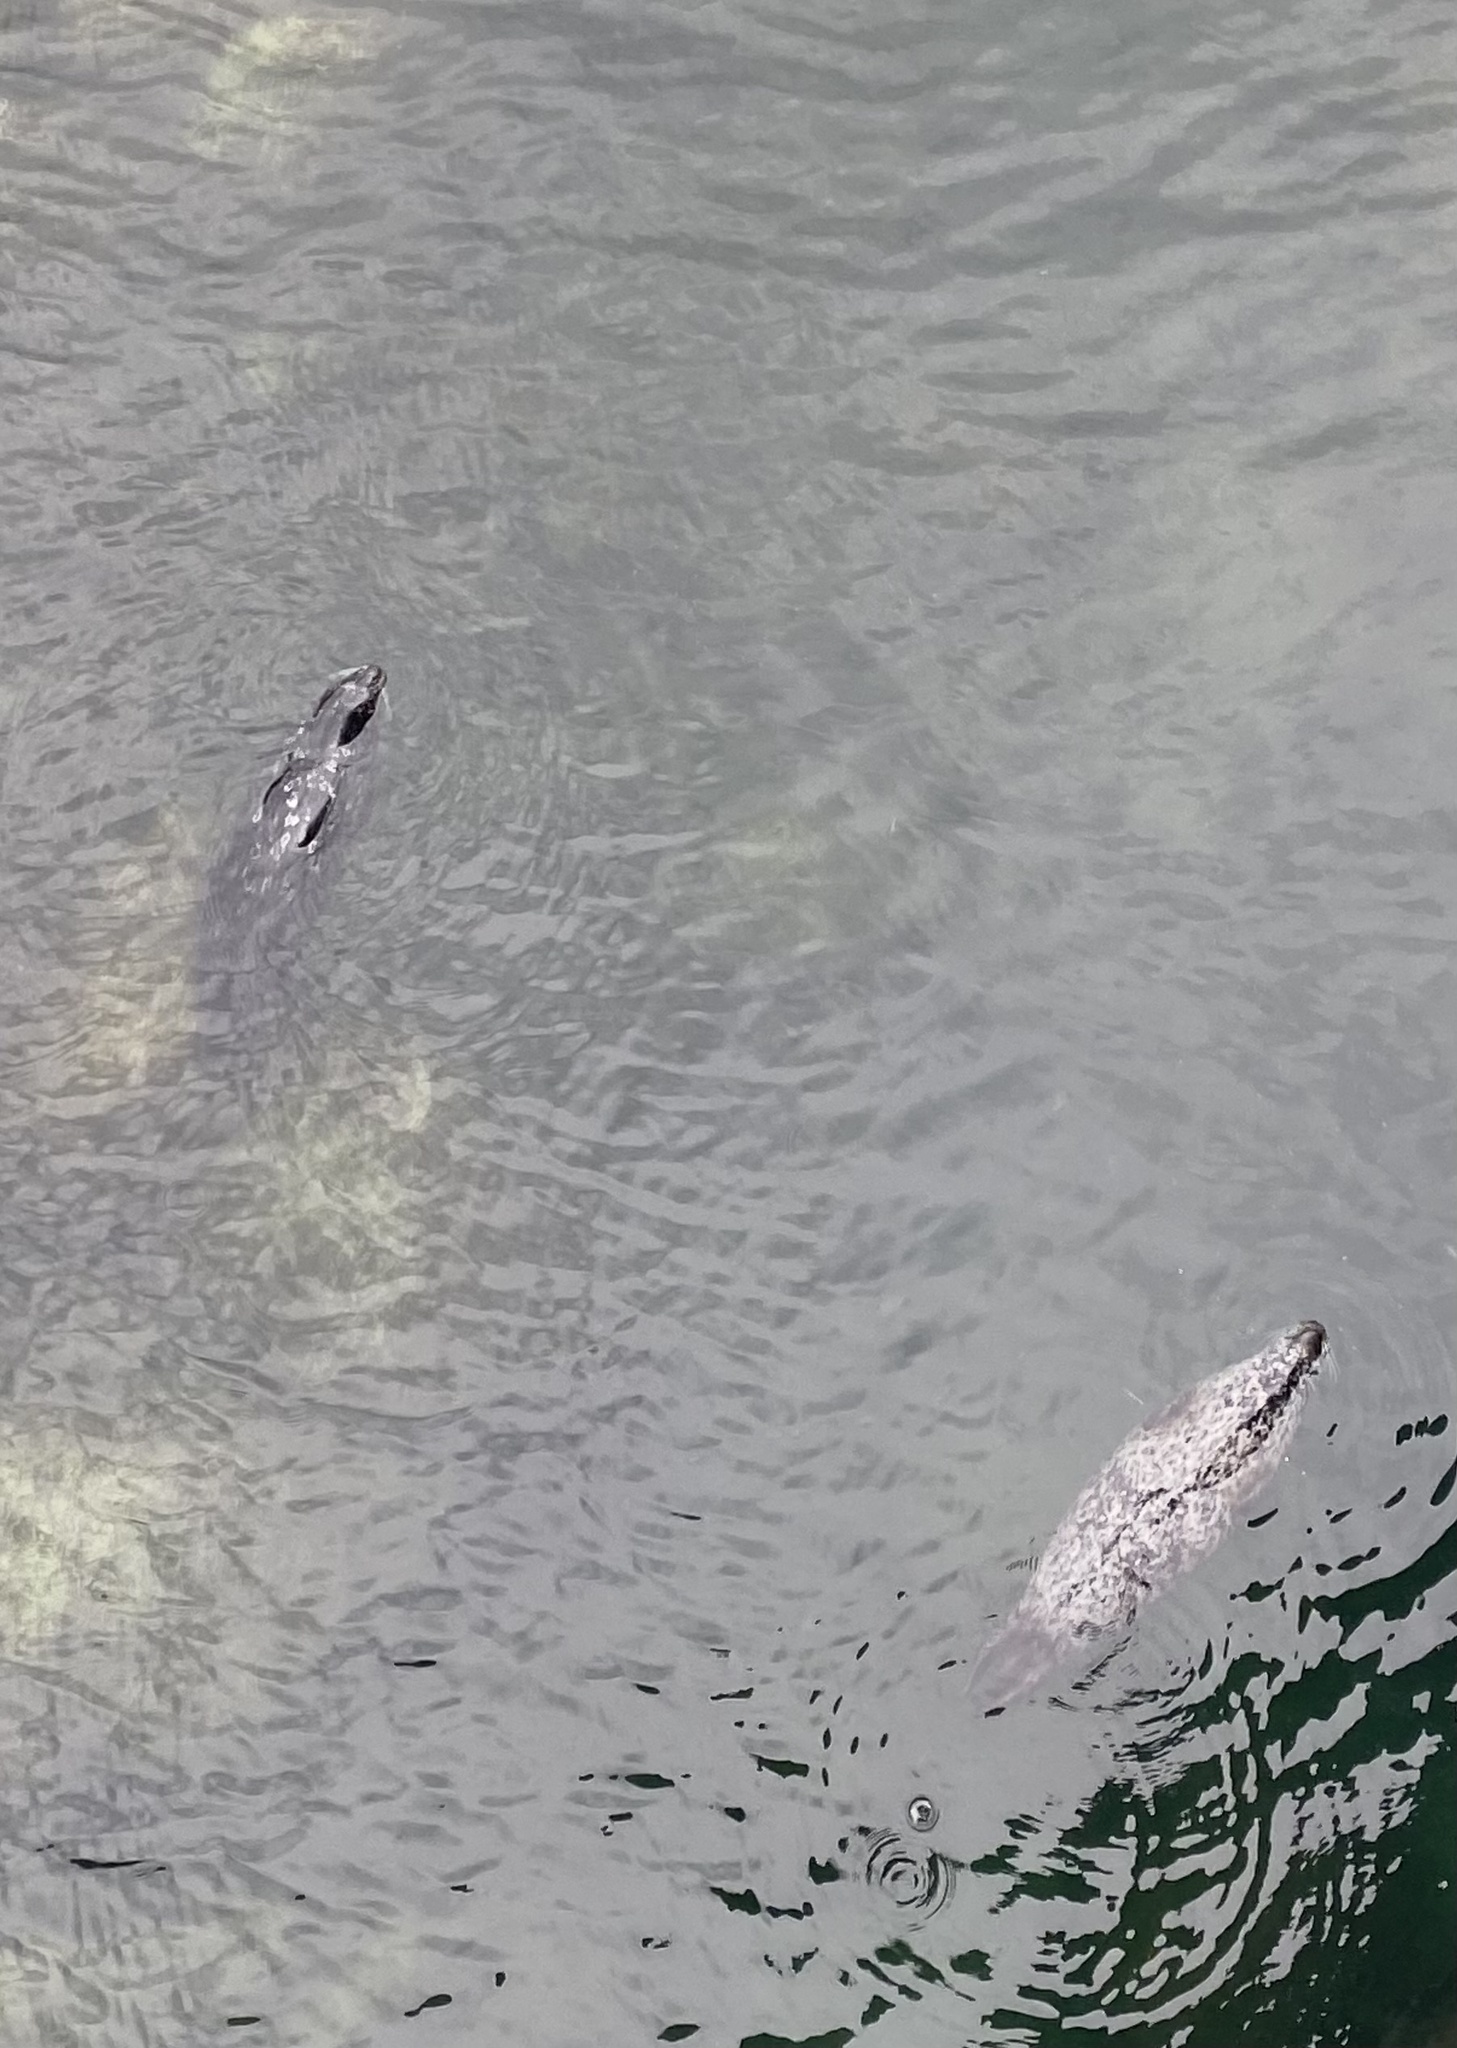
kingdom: Animalia
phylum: Chordata
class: Mammalia
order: Carnivora
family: Phocidae
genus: Phoca
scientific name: Phoca vitulina
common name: Harbor seal
